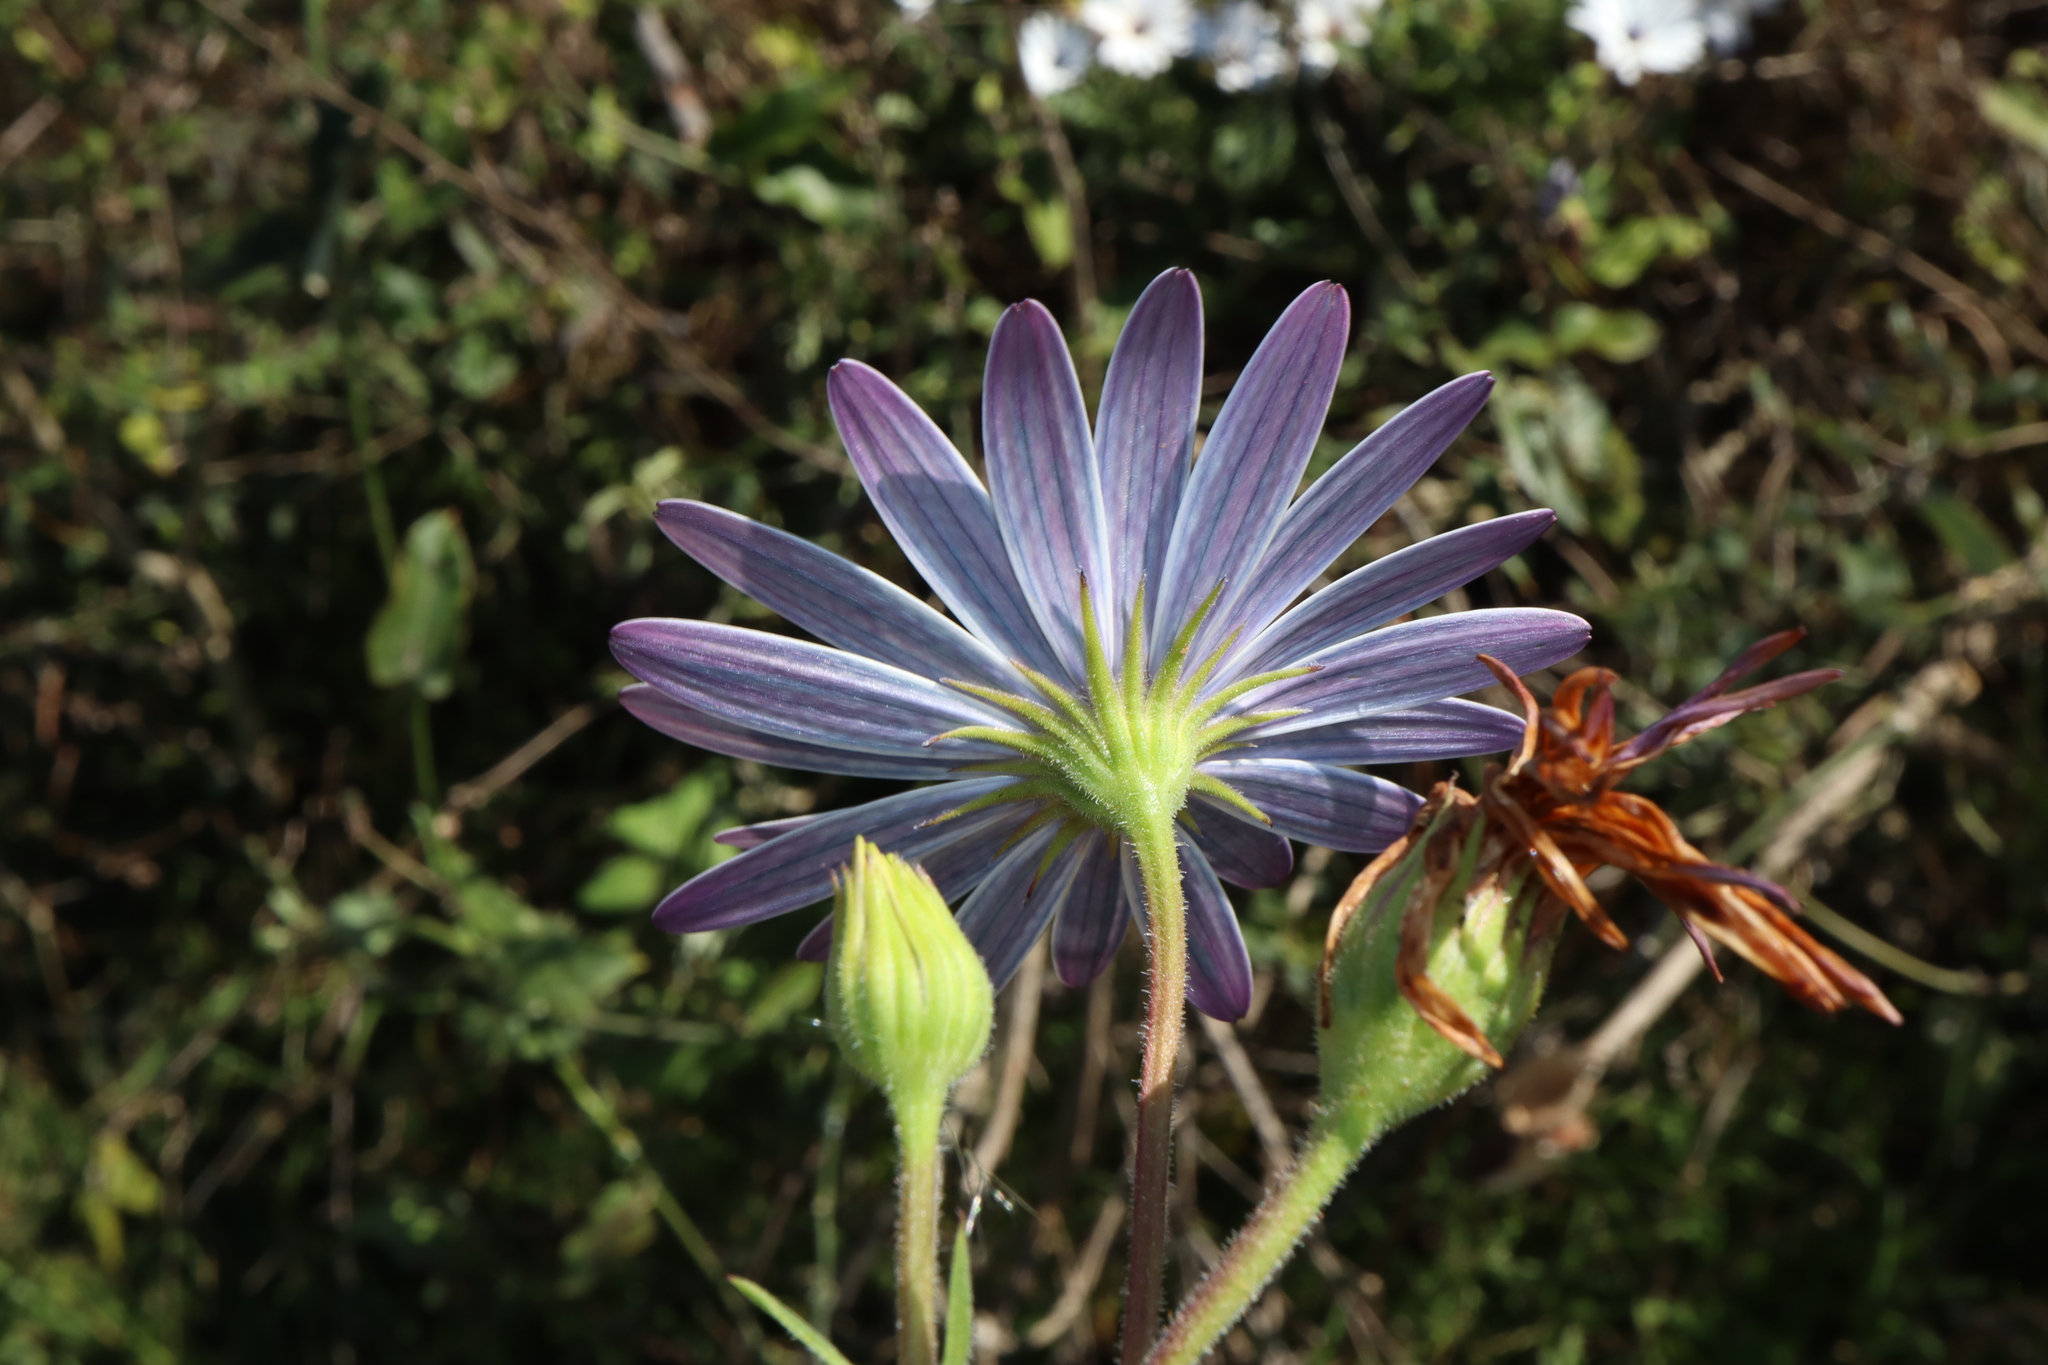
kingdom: Plantae
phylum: Tracheophyta
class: Magnoliopsida
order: Asterales
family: Asteraceae
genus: Dimorphotheca
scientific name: Dimorphotheca ecklonis
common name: Vanstaden's river daisy
